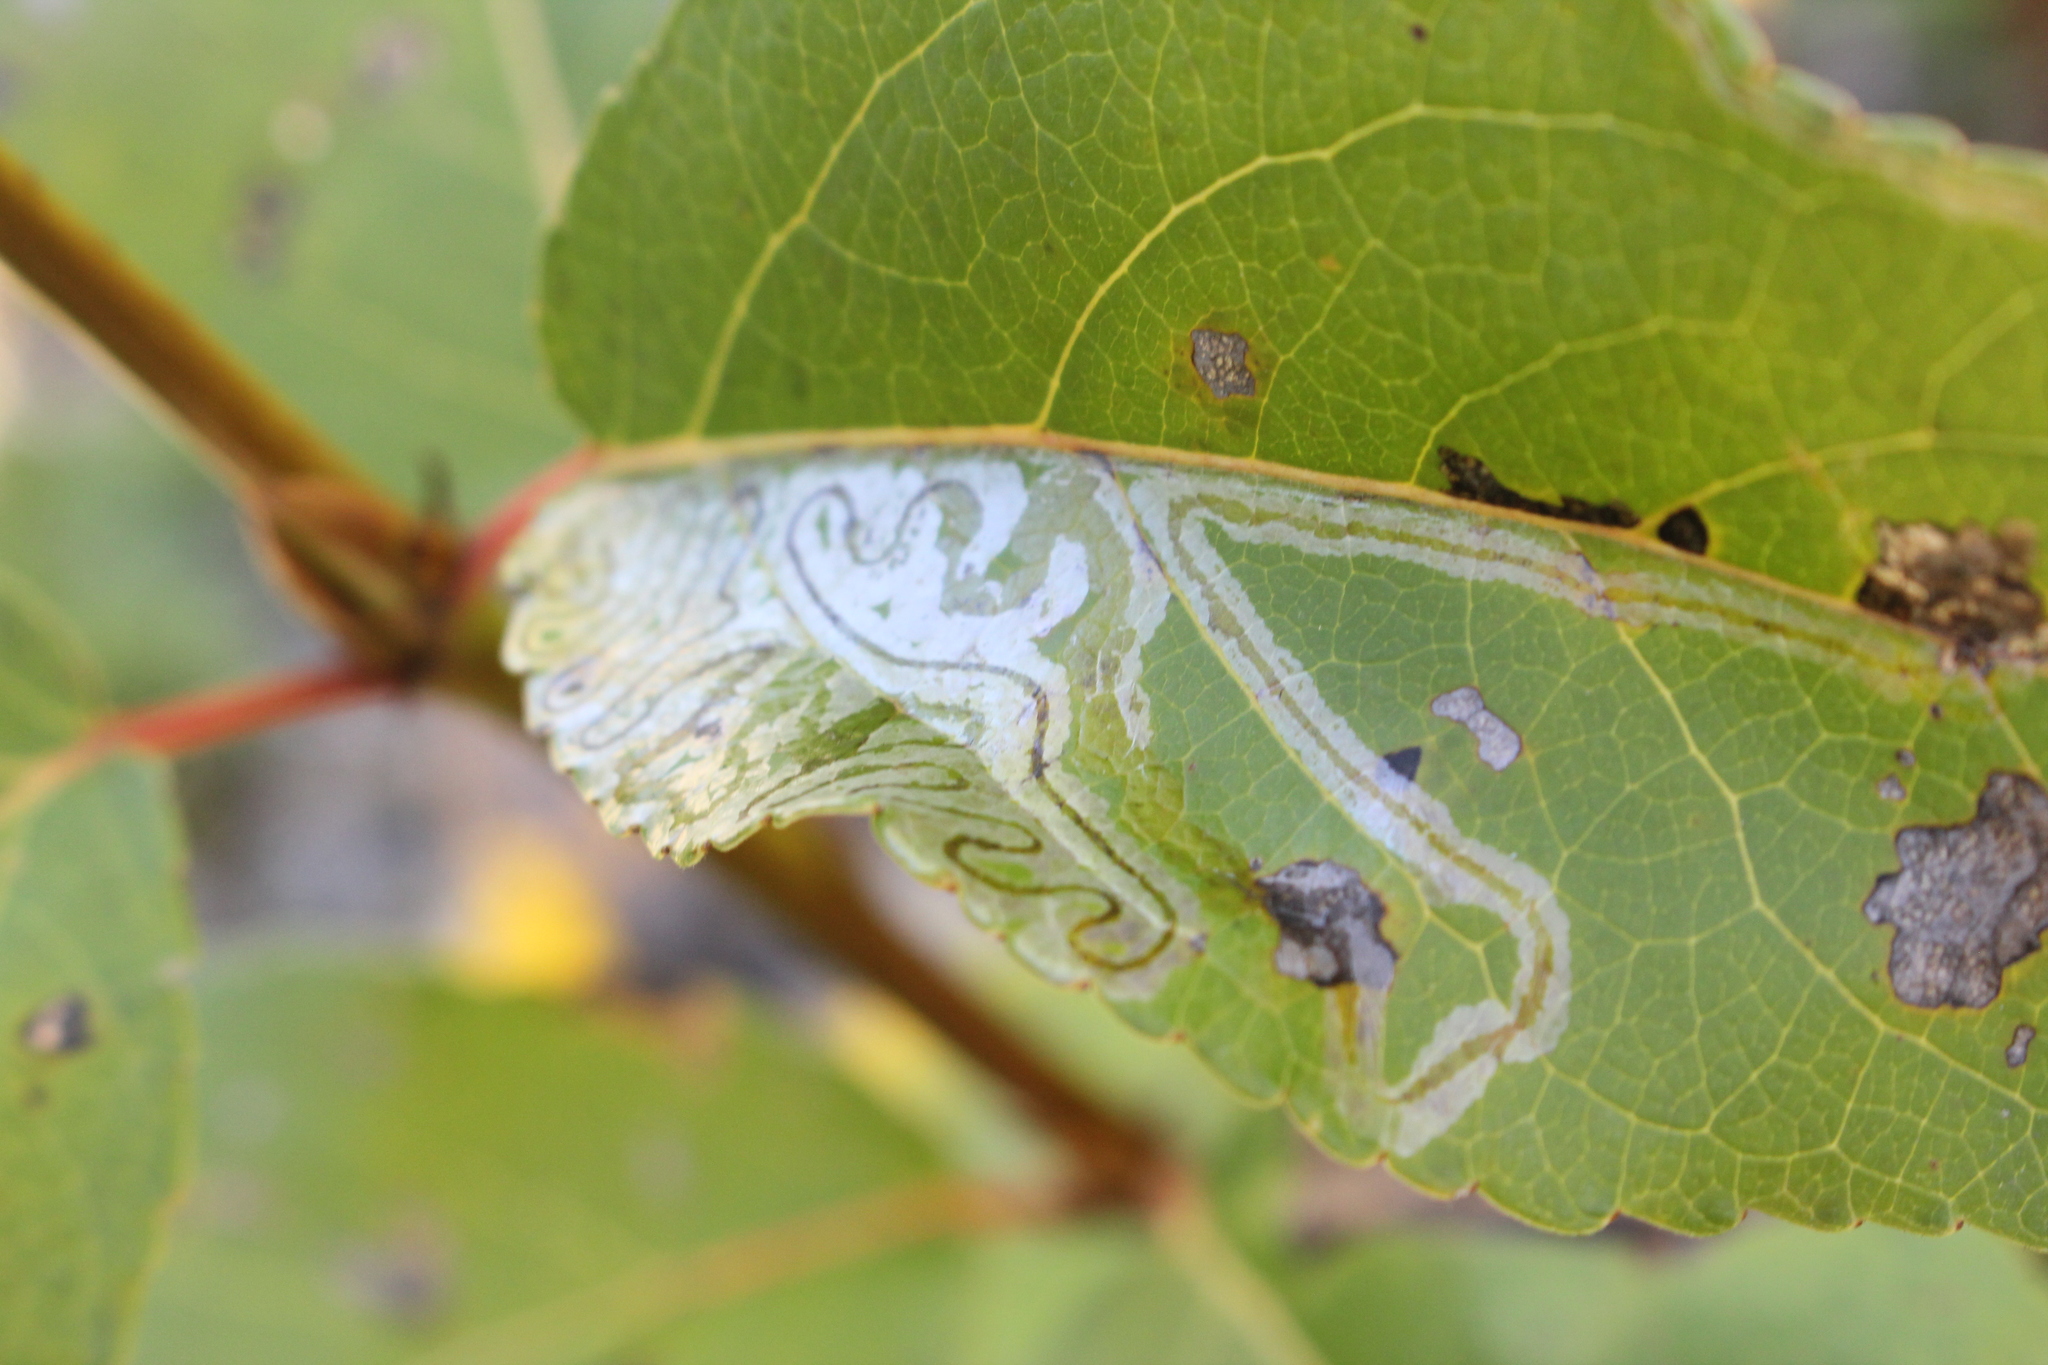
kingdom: Animalia
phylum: Arthropoda
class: Insecta
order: Lepidoptera
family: Gracillariidae
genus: Phyllocnistis
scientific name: Phyllocnistis populiella
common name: Aspen serpentine leafminer moth
